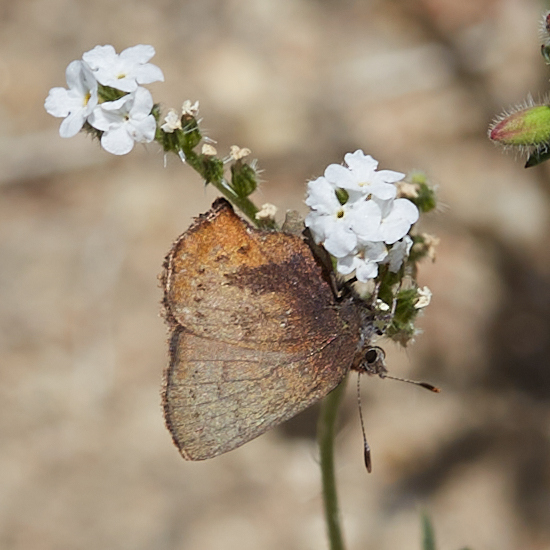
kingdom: Animalia
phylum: Arthropoda
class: Insecta
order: Lepidoptera
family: Lycaenidae
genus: Incisalia
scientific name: Incisalia irioides
